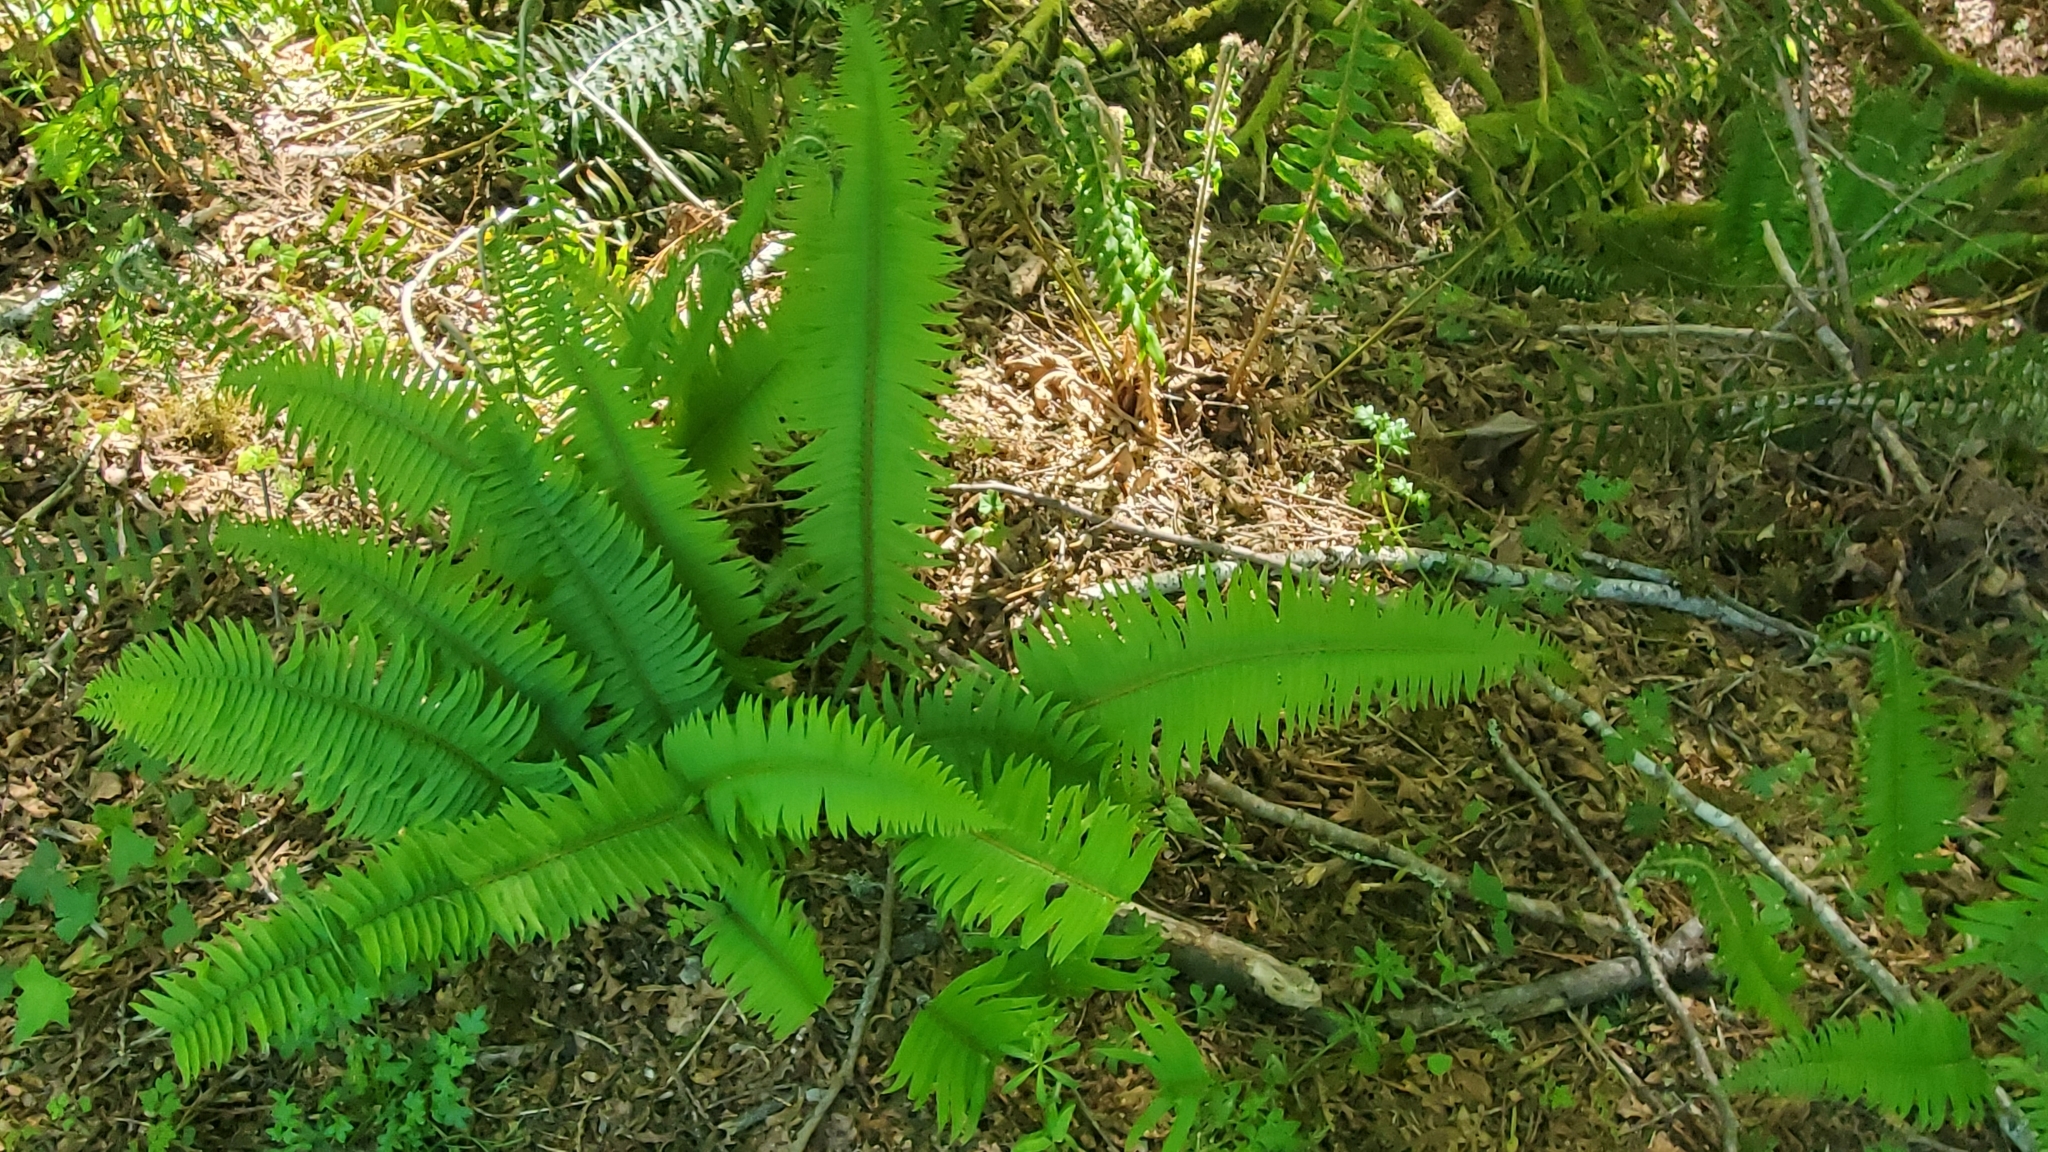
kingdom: Plantae
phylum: Tracheophyta
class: Polypodiopsida
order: Polypodiales
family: Dryopteridaceae
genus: Polystichum
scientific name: Polystichum munitum
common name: Western sword-fern
